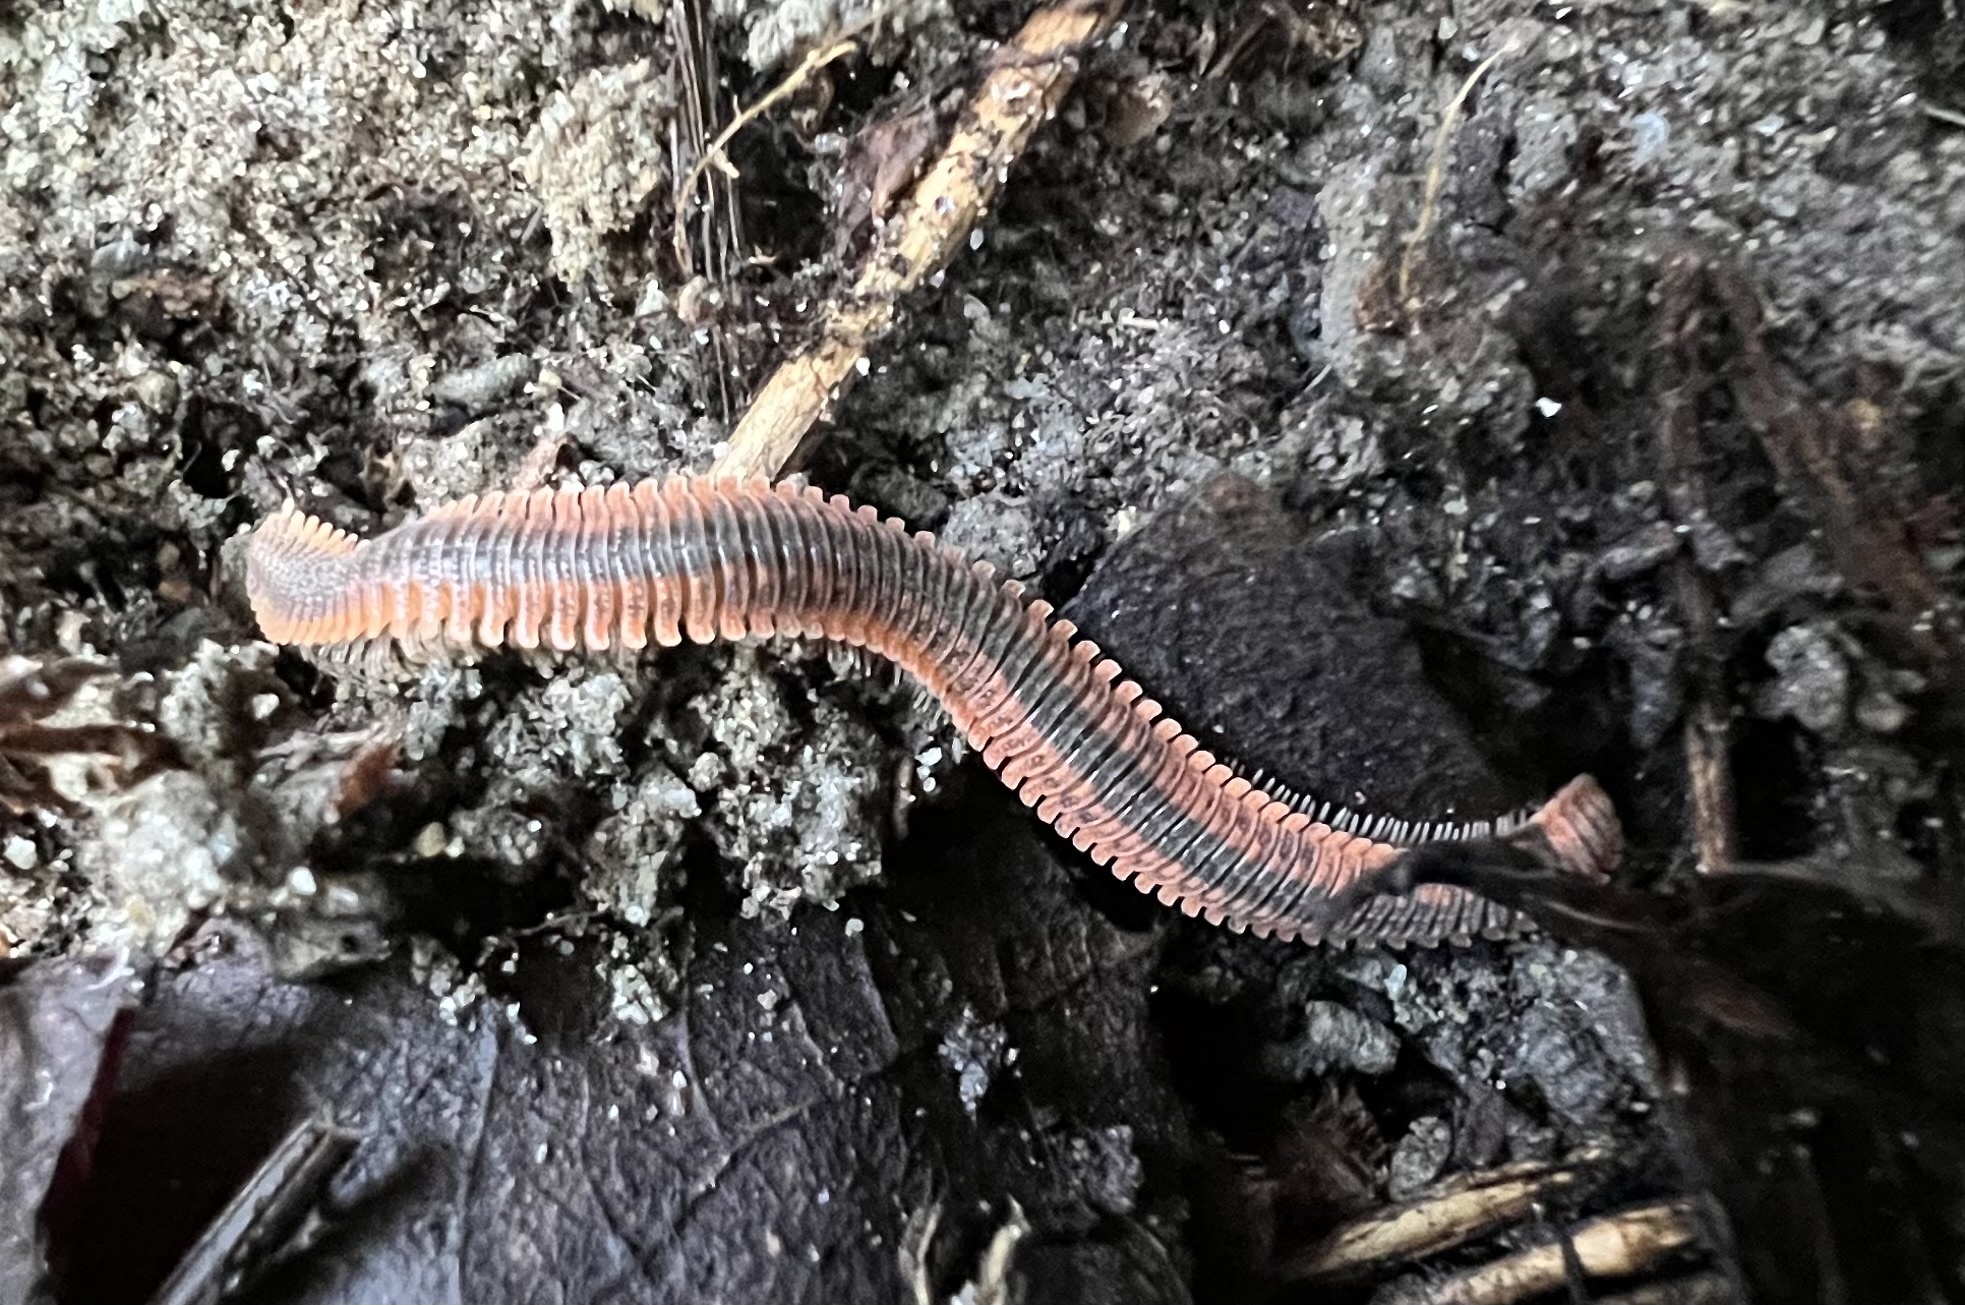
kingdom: Animalia
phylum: Arthropoda
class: Diplopoda
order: Platydesmida
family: Andrognathidae
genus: Brachycybe
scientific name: Brachycybe producta
